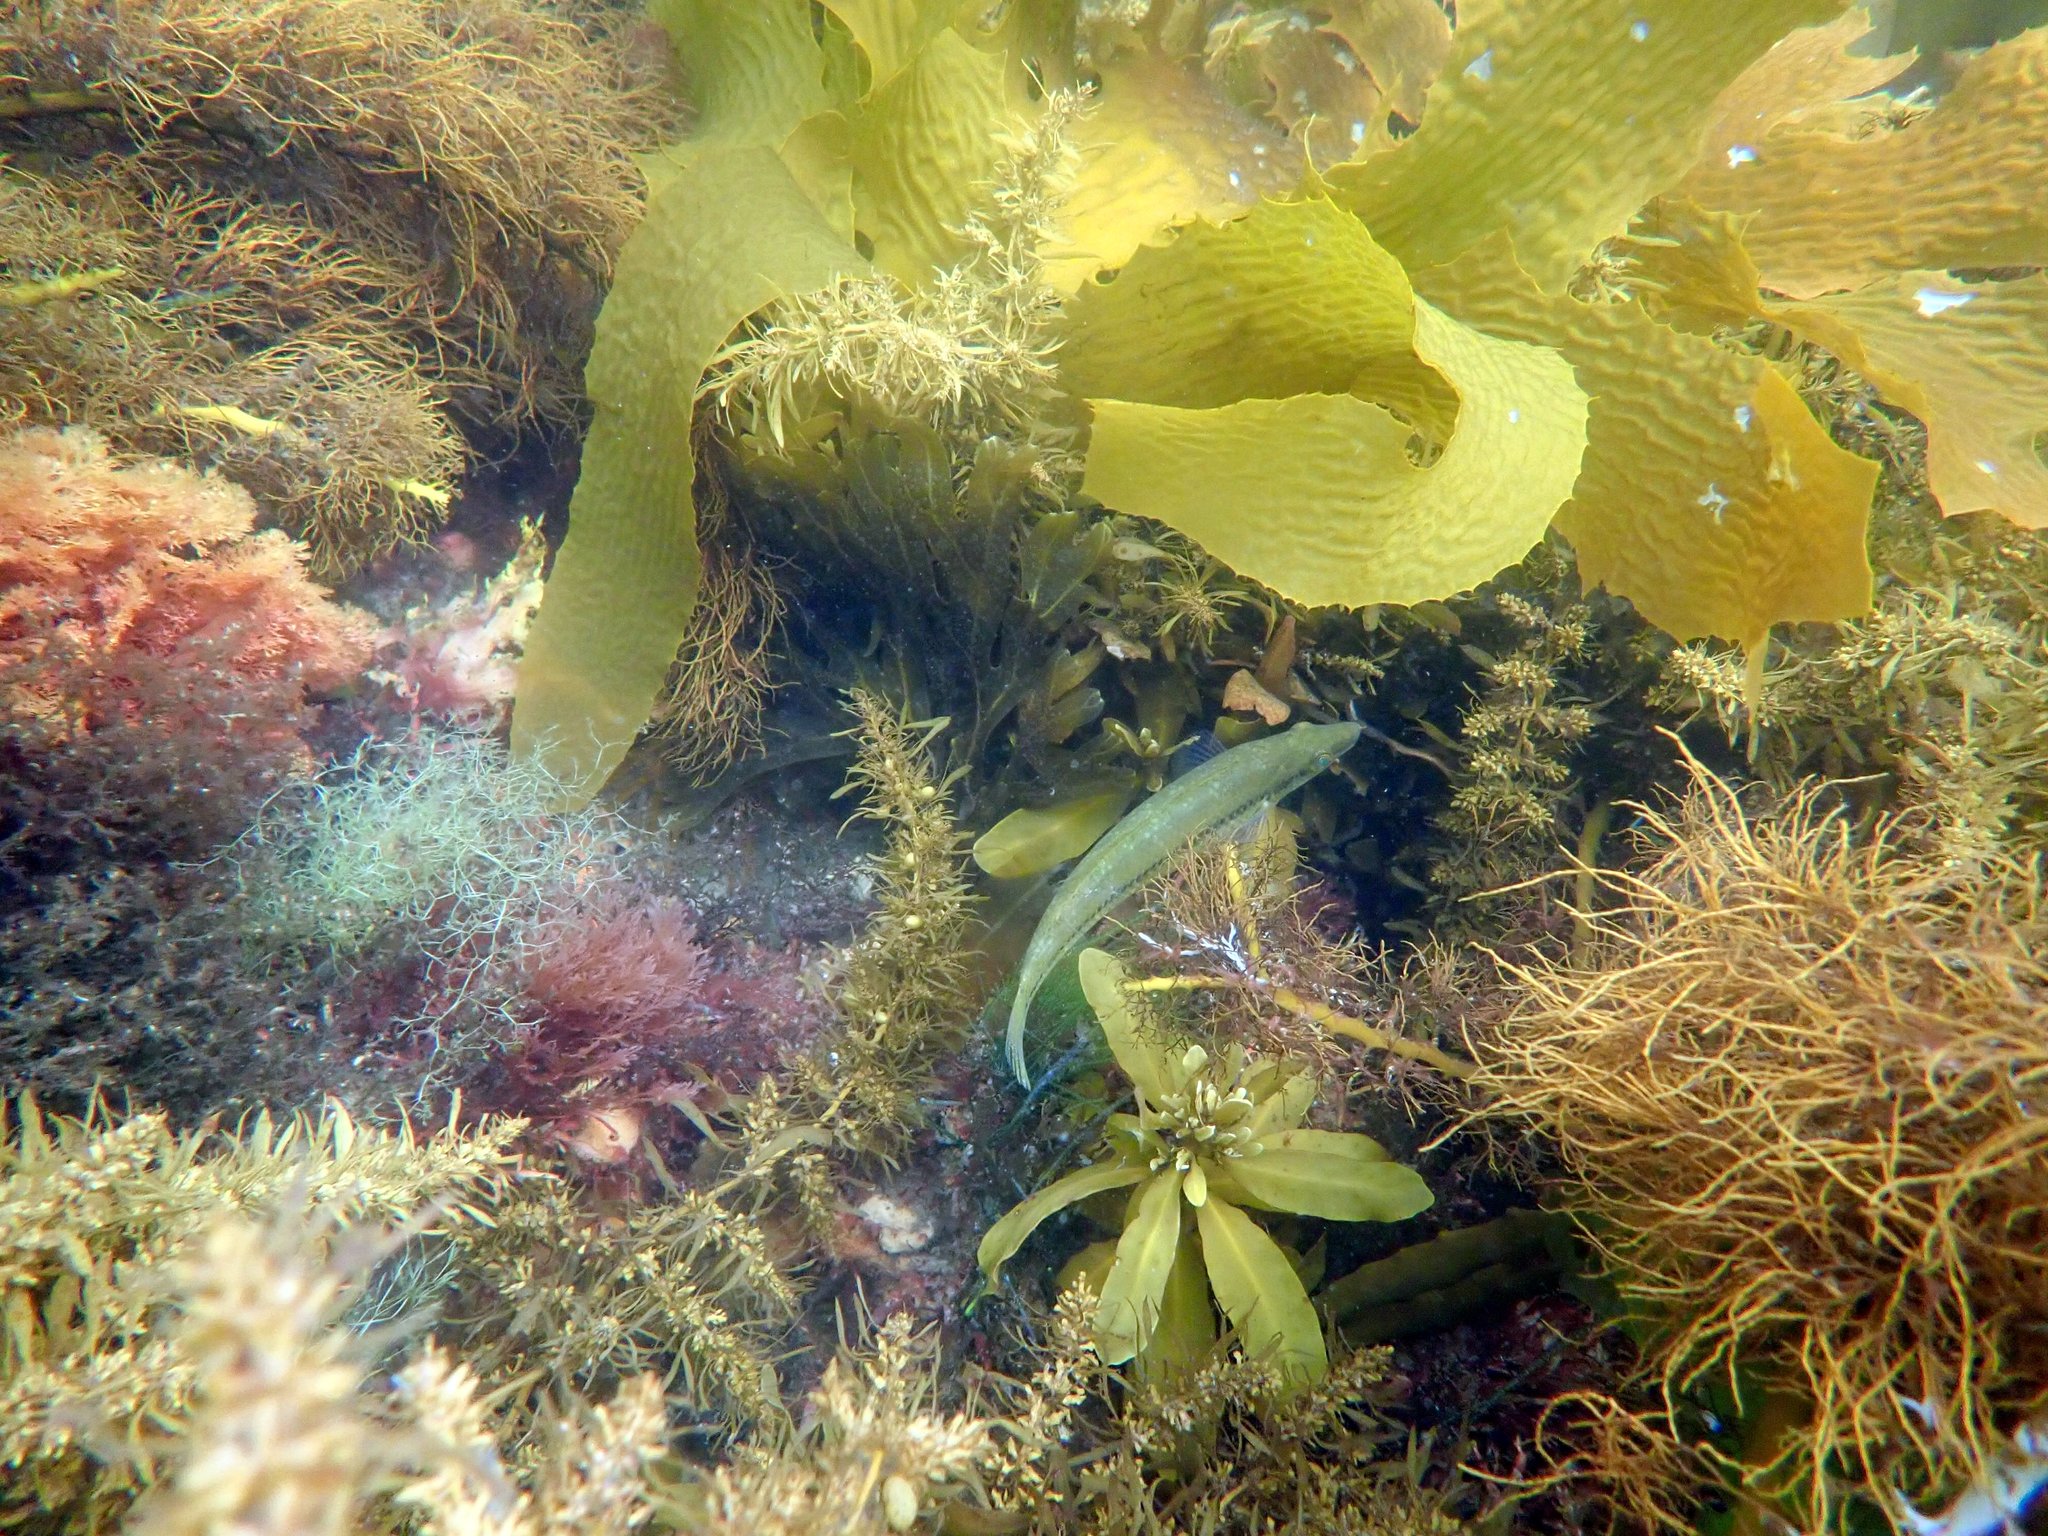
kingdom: Animalia
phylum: Chordata
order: Perciformes
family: Odacidae
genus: Neoodax
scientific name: Neoodax balteatus
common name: Ground mullet
